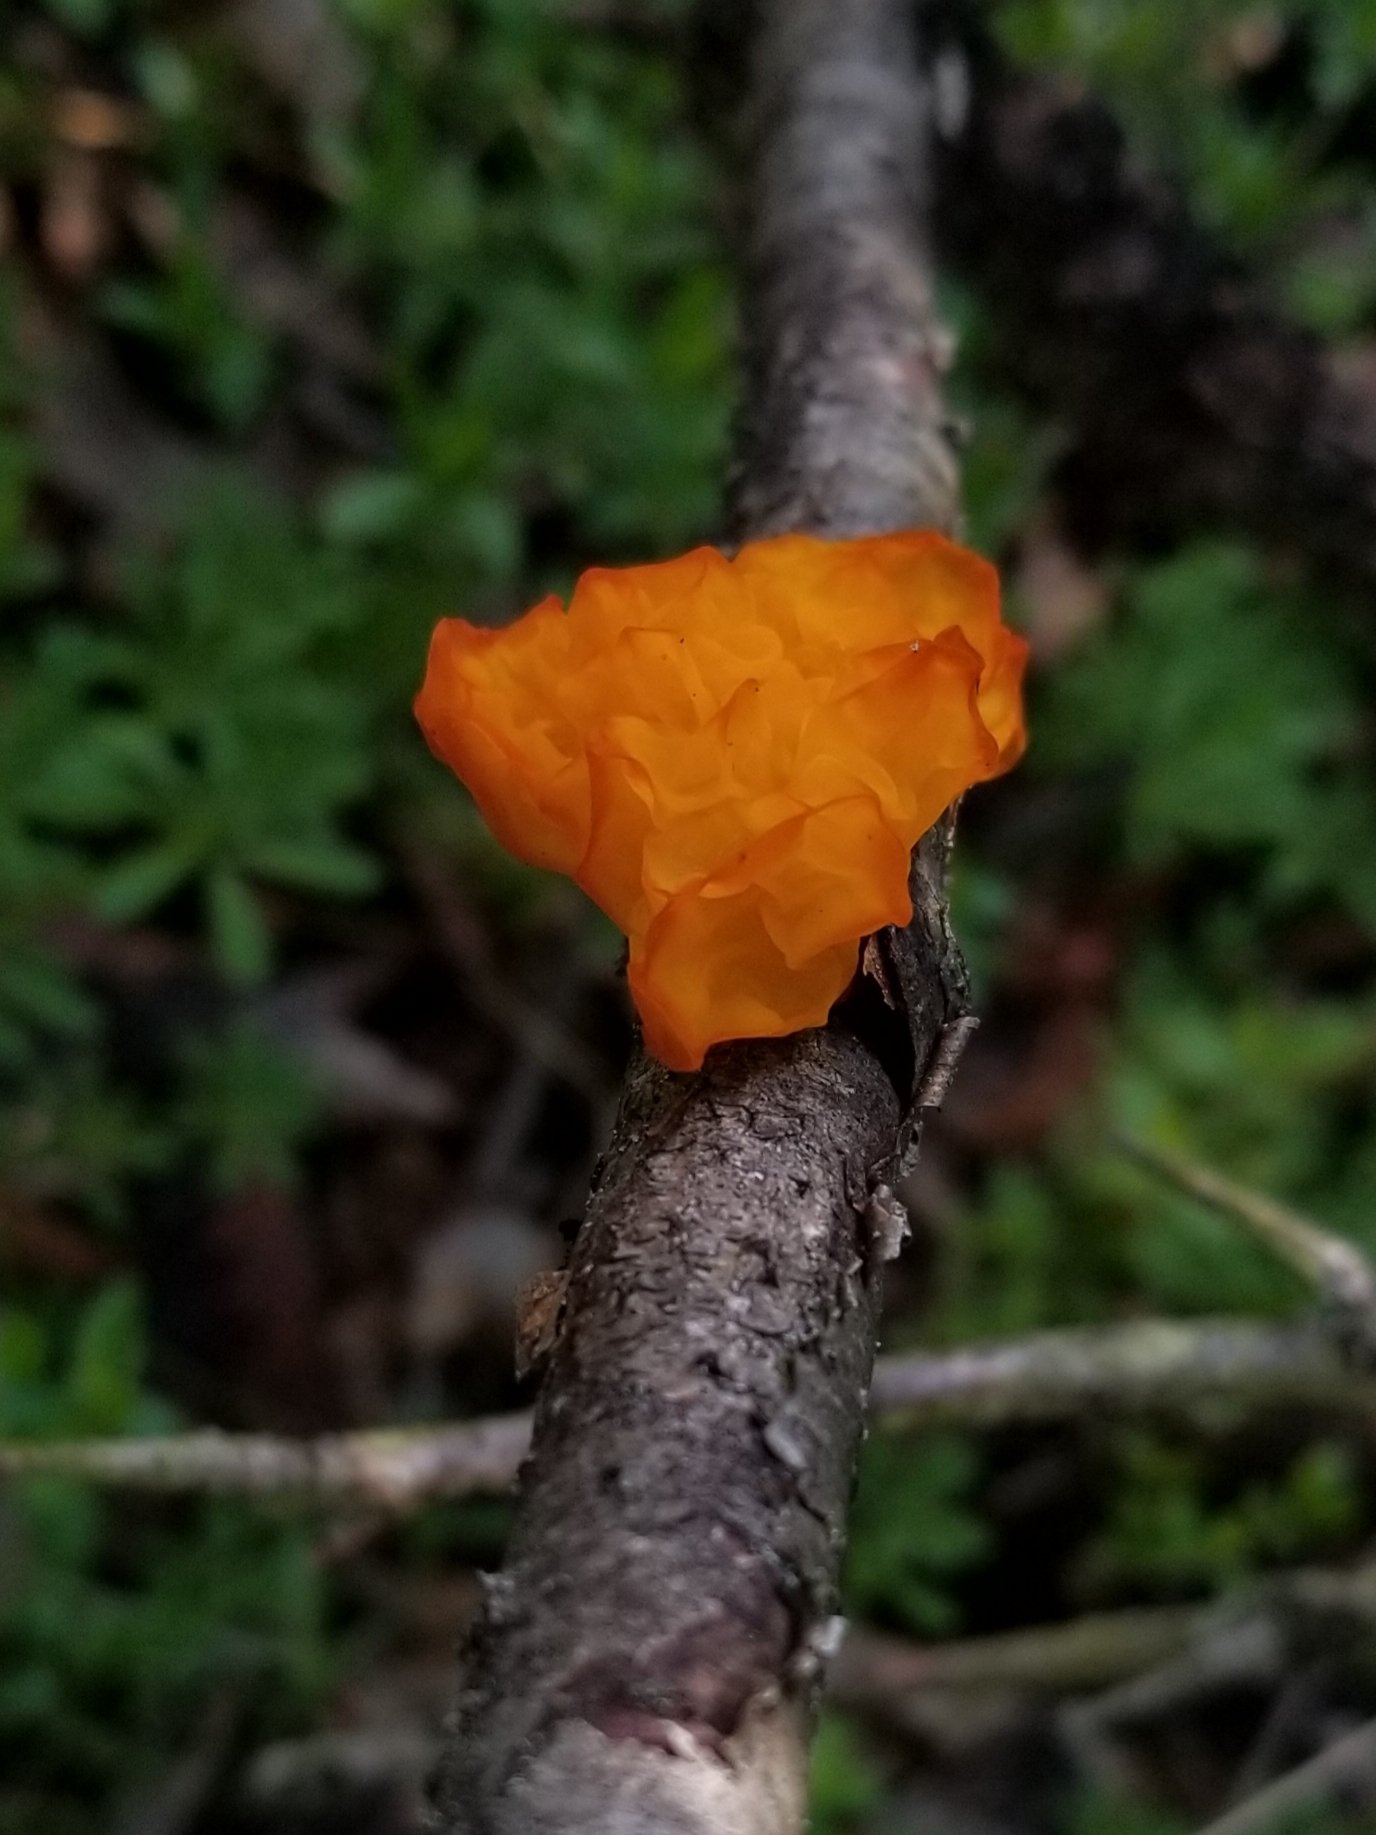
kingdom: Fungi
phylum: Basidiomycota
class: Tremellomycetes
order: Tremellales
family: Tremellaceae
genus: Tremella
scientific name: Tremella mesenterica
